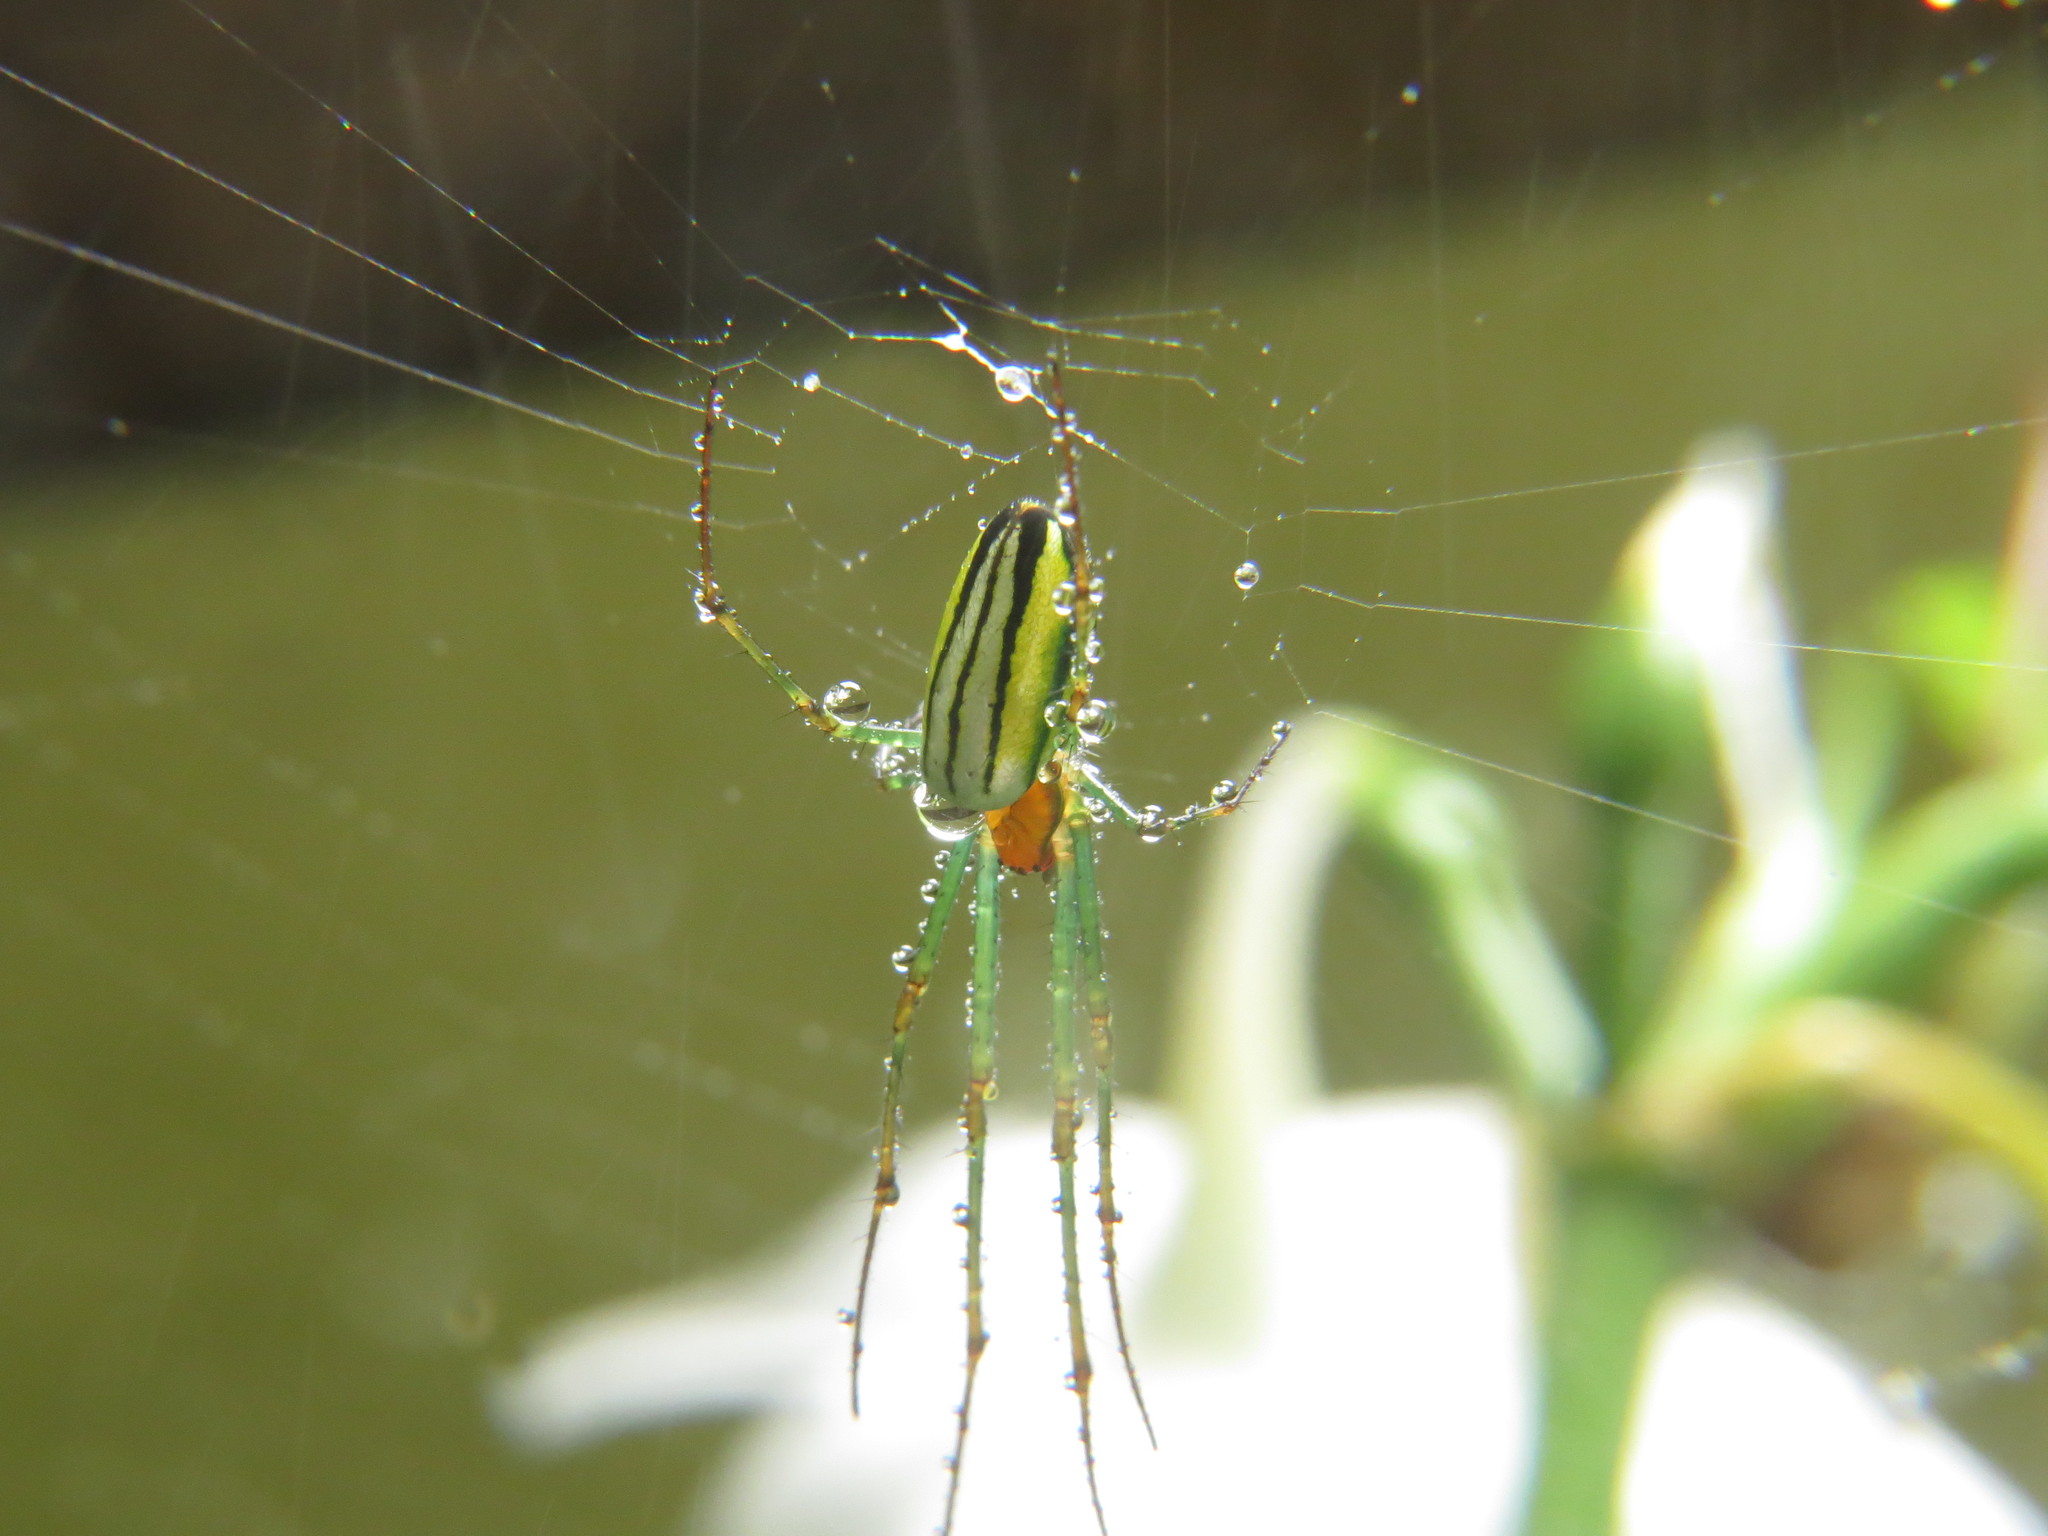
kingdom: Animalia
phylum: Arthropoda
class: Arachnida
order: Araneae
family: Tetragnathidae
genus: Leucauge
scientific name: Leucauge celebesiana
